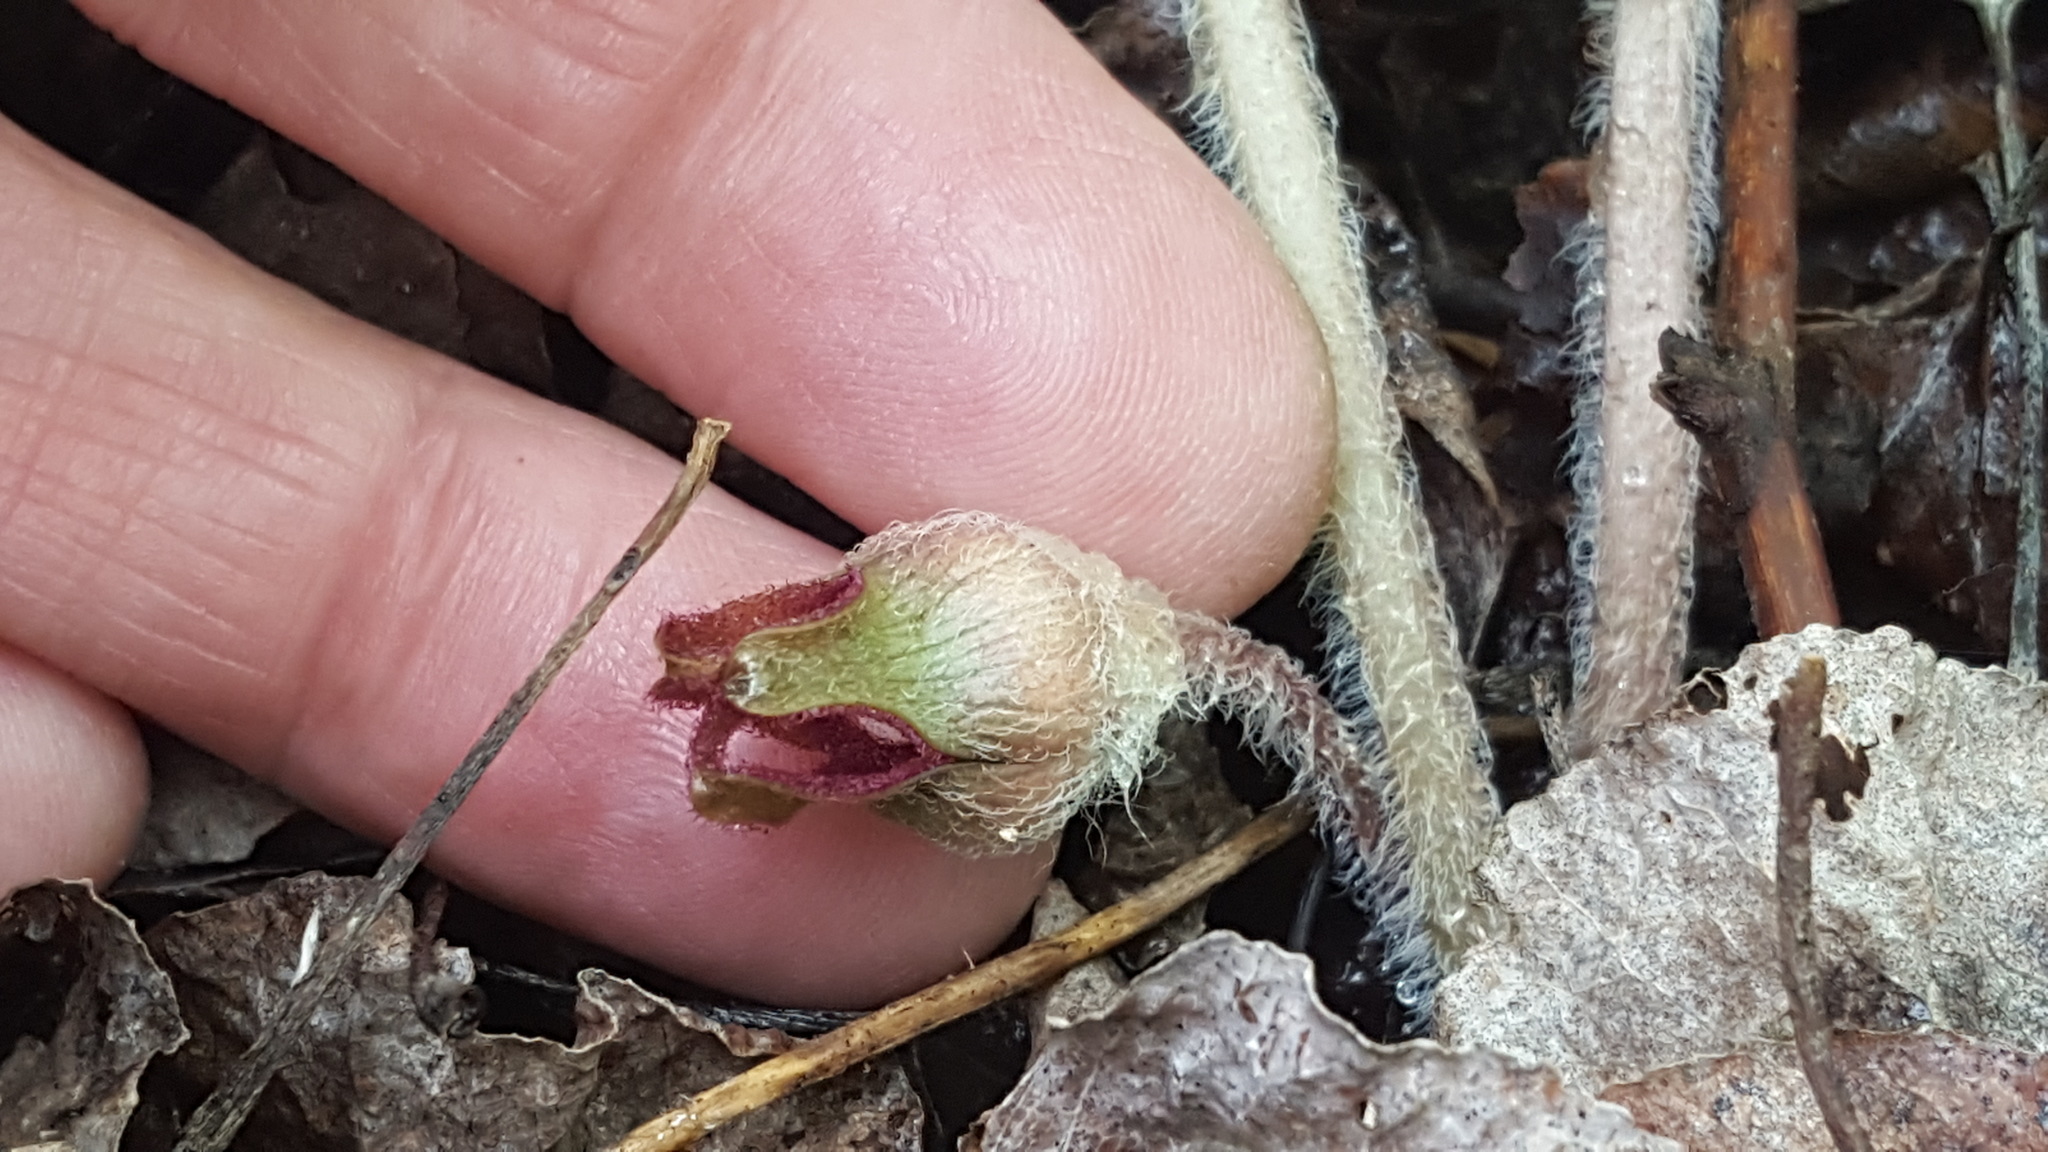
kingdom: Plantae
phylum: Tracheophyta
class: Magnoliopsida
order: Piperales
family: Aristolochiaceae
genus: Asarum
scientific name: Asarum canadense
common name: Wild ginger
